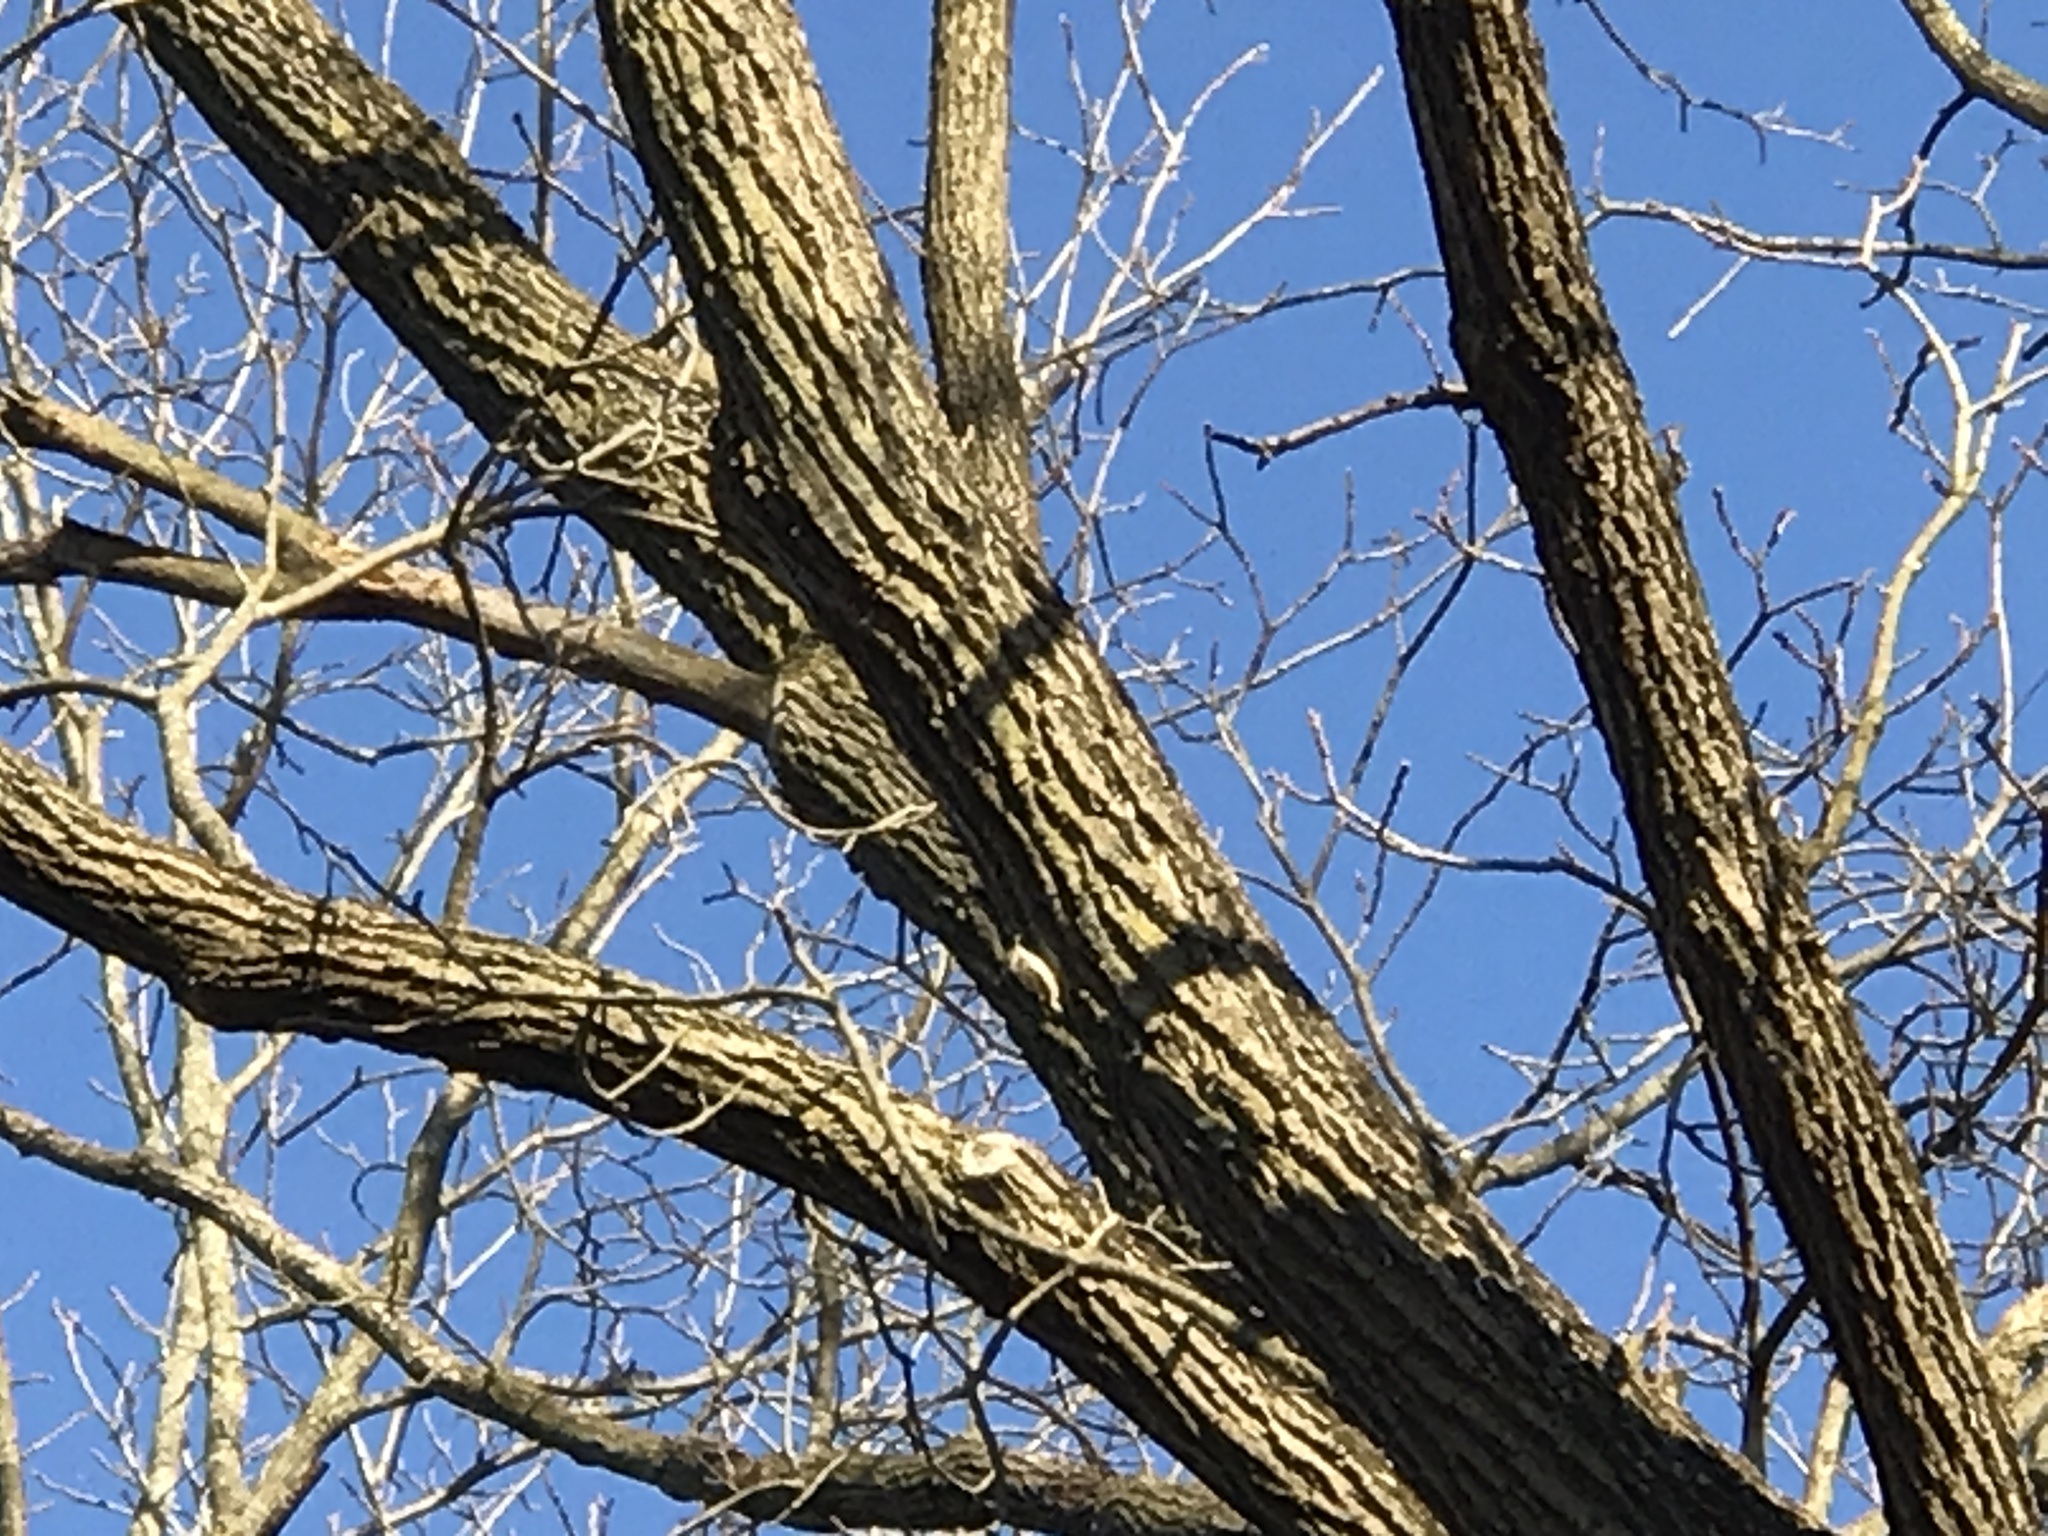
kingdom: Animalia
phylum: Chordata
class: Aves
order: Passeriformes
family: Certhiidae
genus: Certhia
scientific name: Certhia americana
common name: Brown creeper
